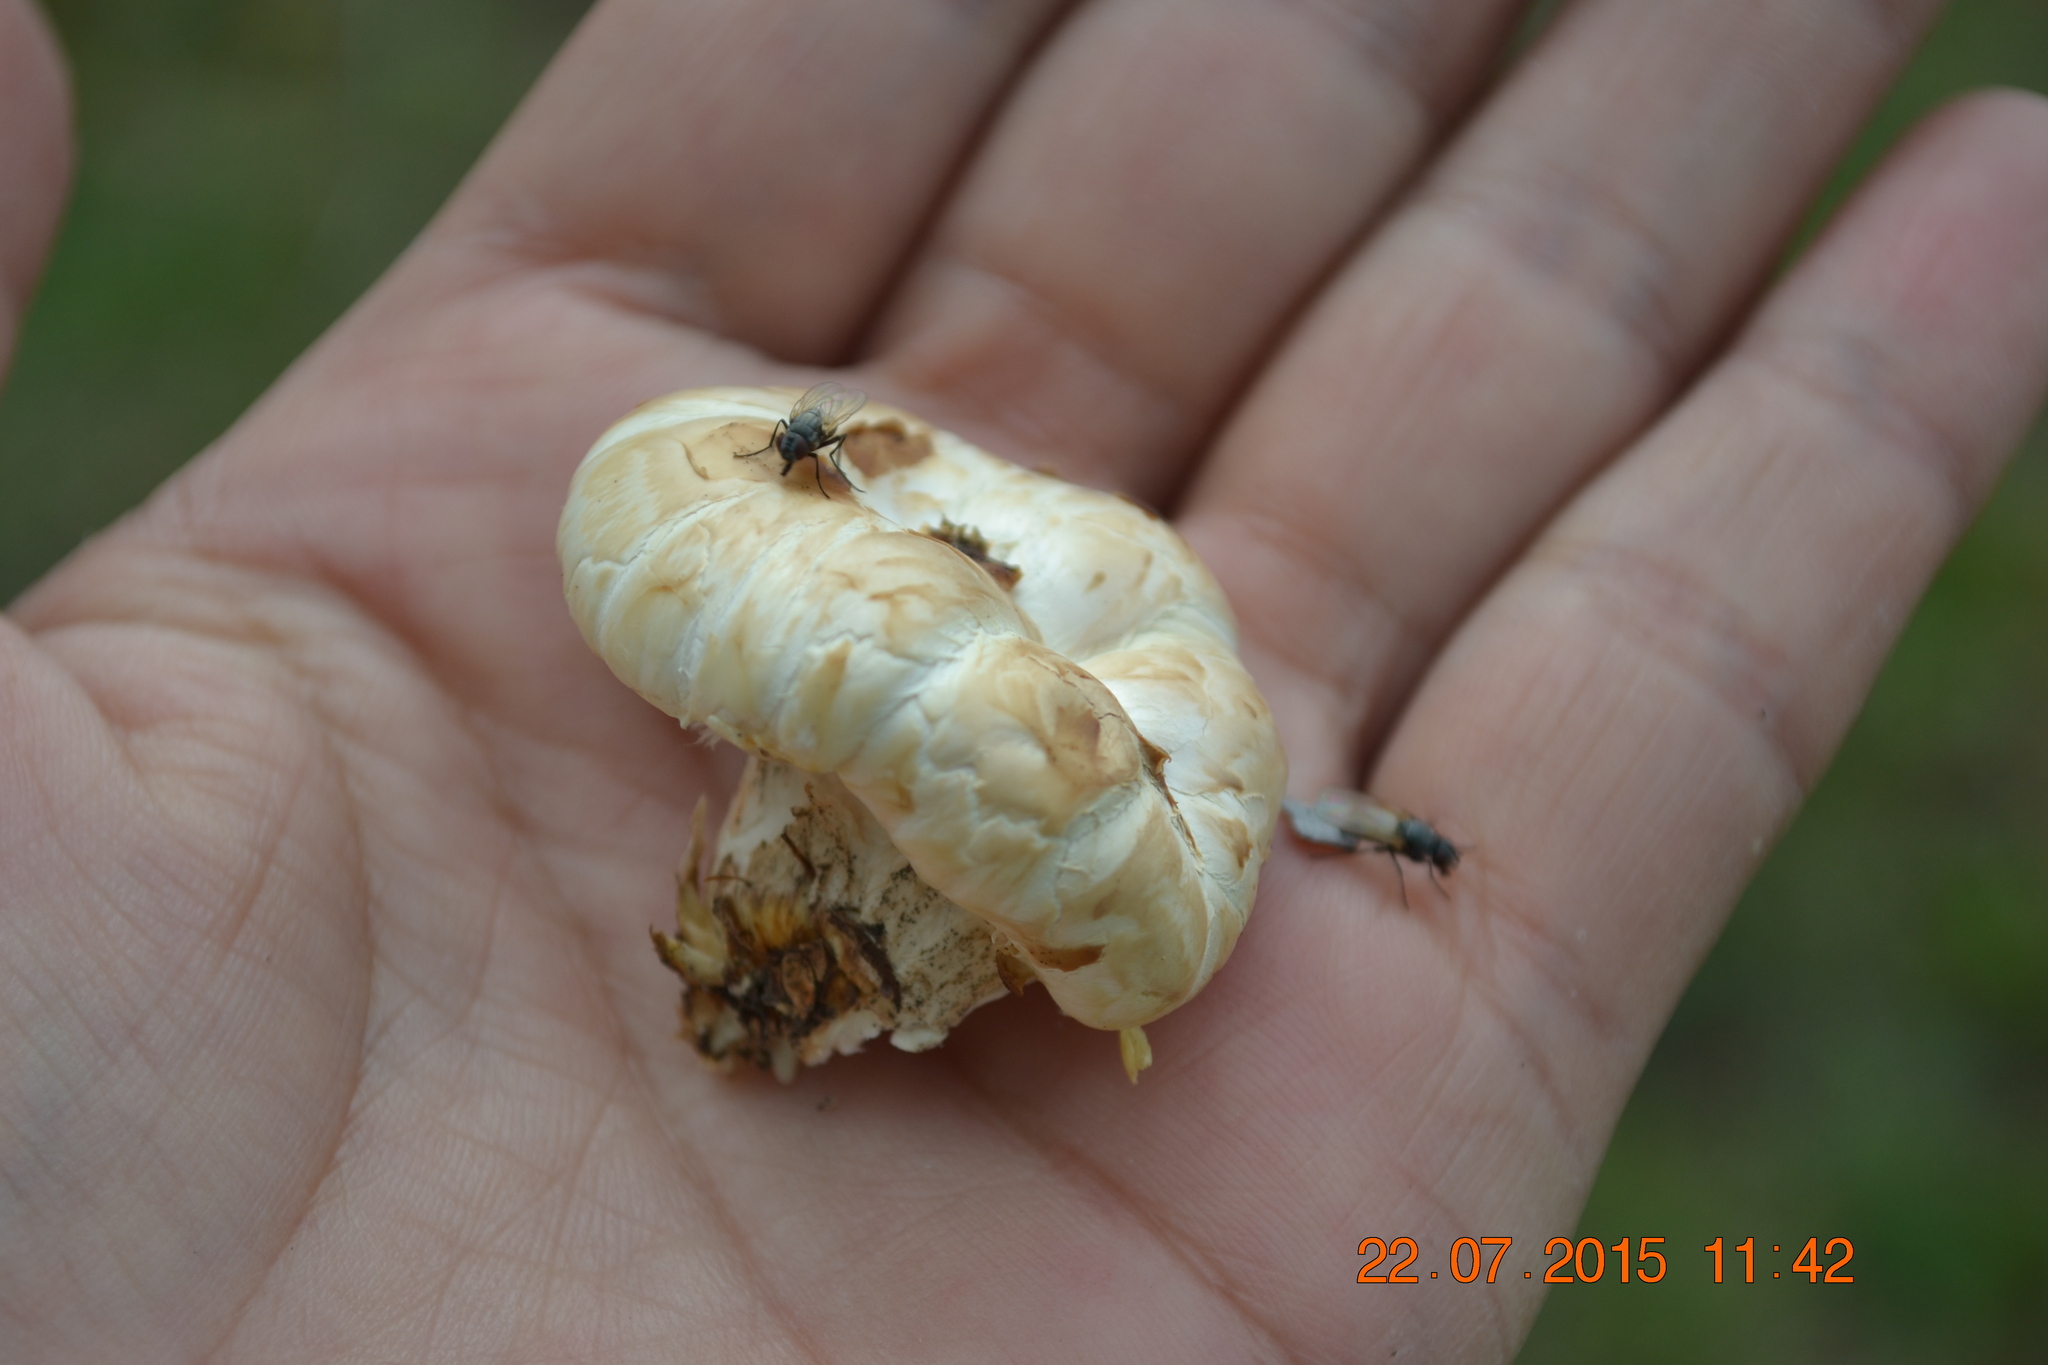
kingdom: Fungi
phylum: Basidiomycota
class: Agaricomycetes
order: Gloeophyllales
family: Gloeophyllaceae
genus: Neolentinus
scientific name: Neolentinus lepideus
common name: Scaly sawgill
